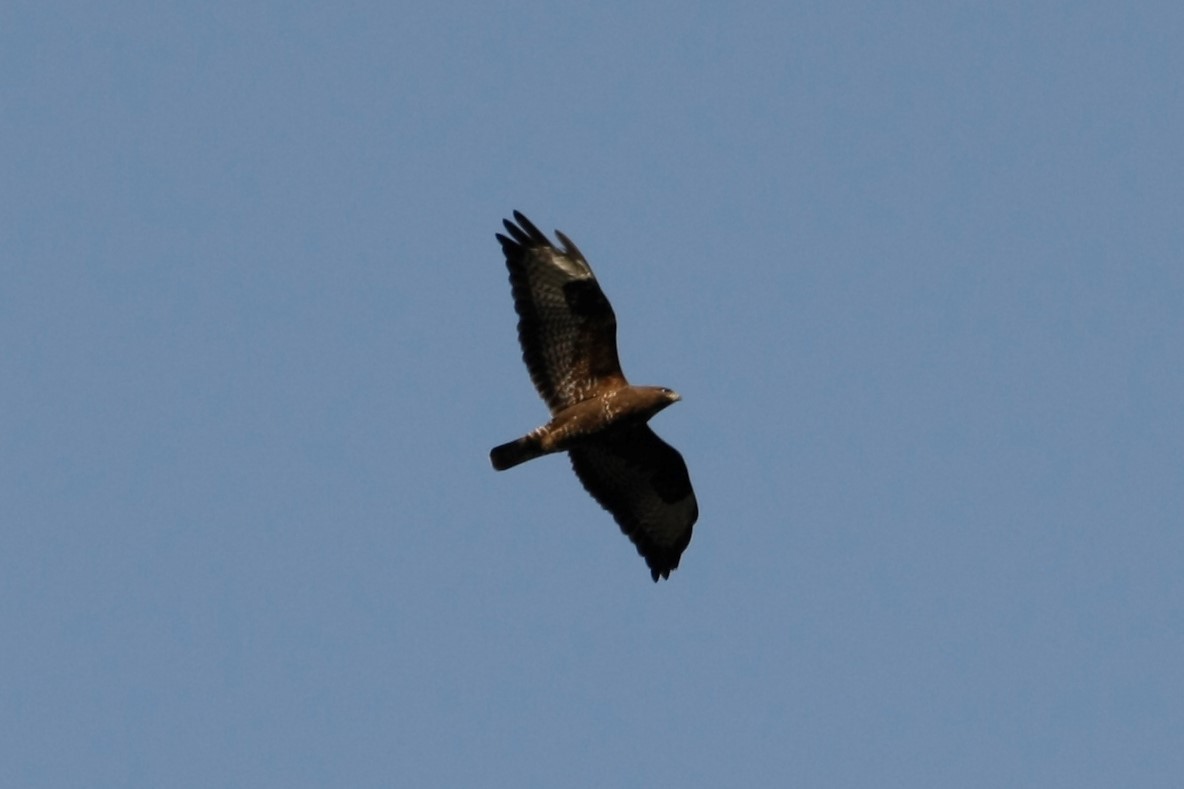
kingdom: Animalia
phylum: Chordata
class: Aves
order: Accipitriformes
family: Accipitridae
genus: Buteo
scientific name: Buteo buteo
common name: Common buzzard
